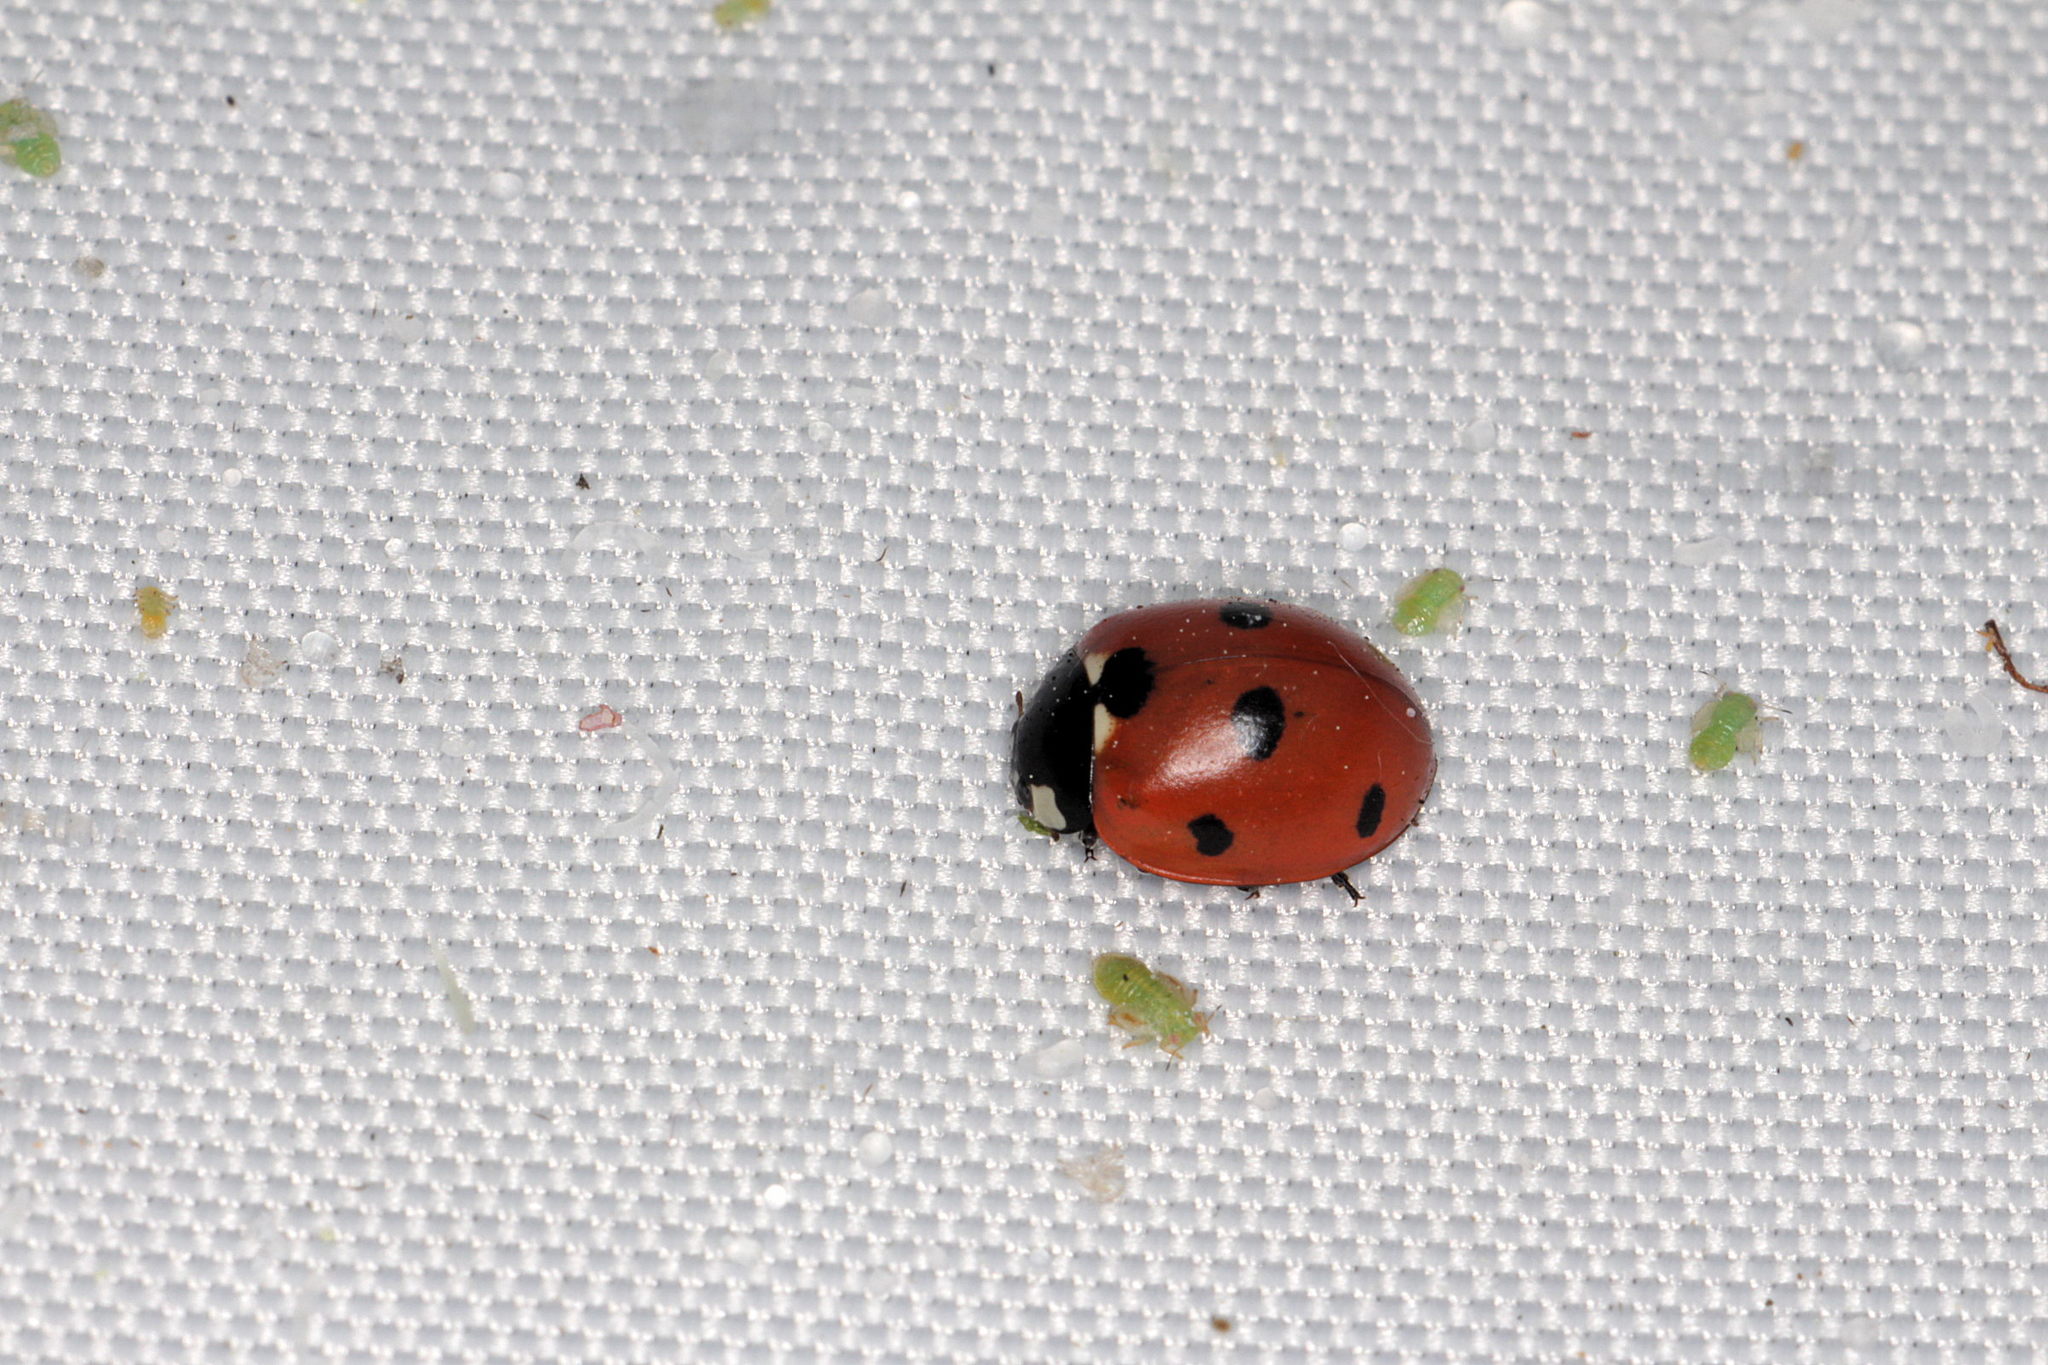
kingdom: Animalia
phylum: Arthropoda
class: Insecta
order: Coleoptera
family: Coccinellidae
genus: Coccinella
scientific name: Coccinella septempunctata
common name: Sevenspotted lady beetle
